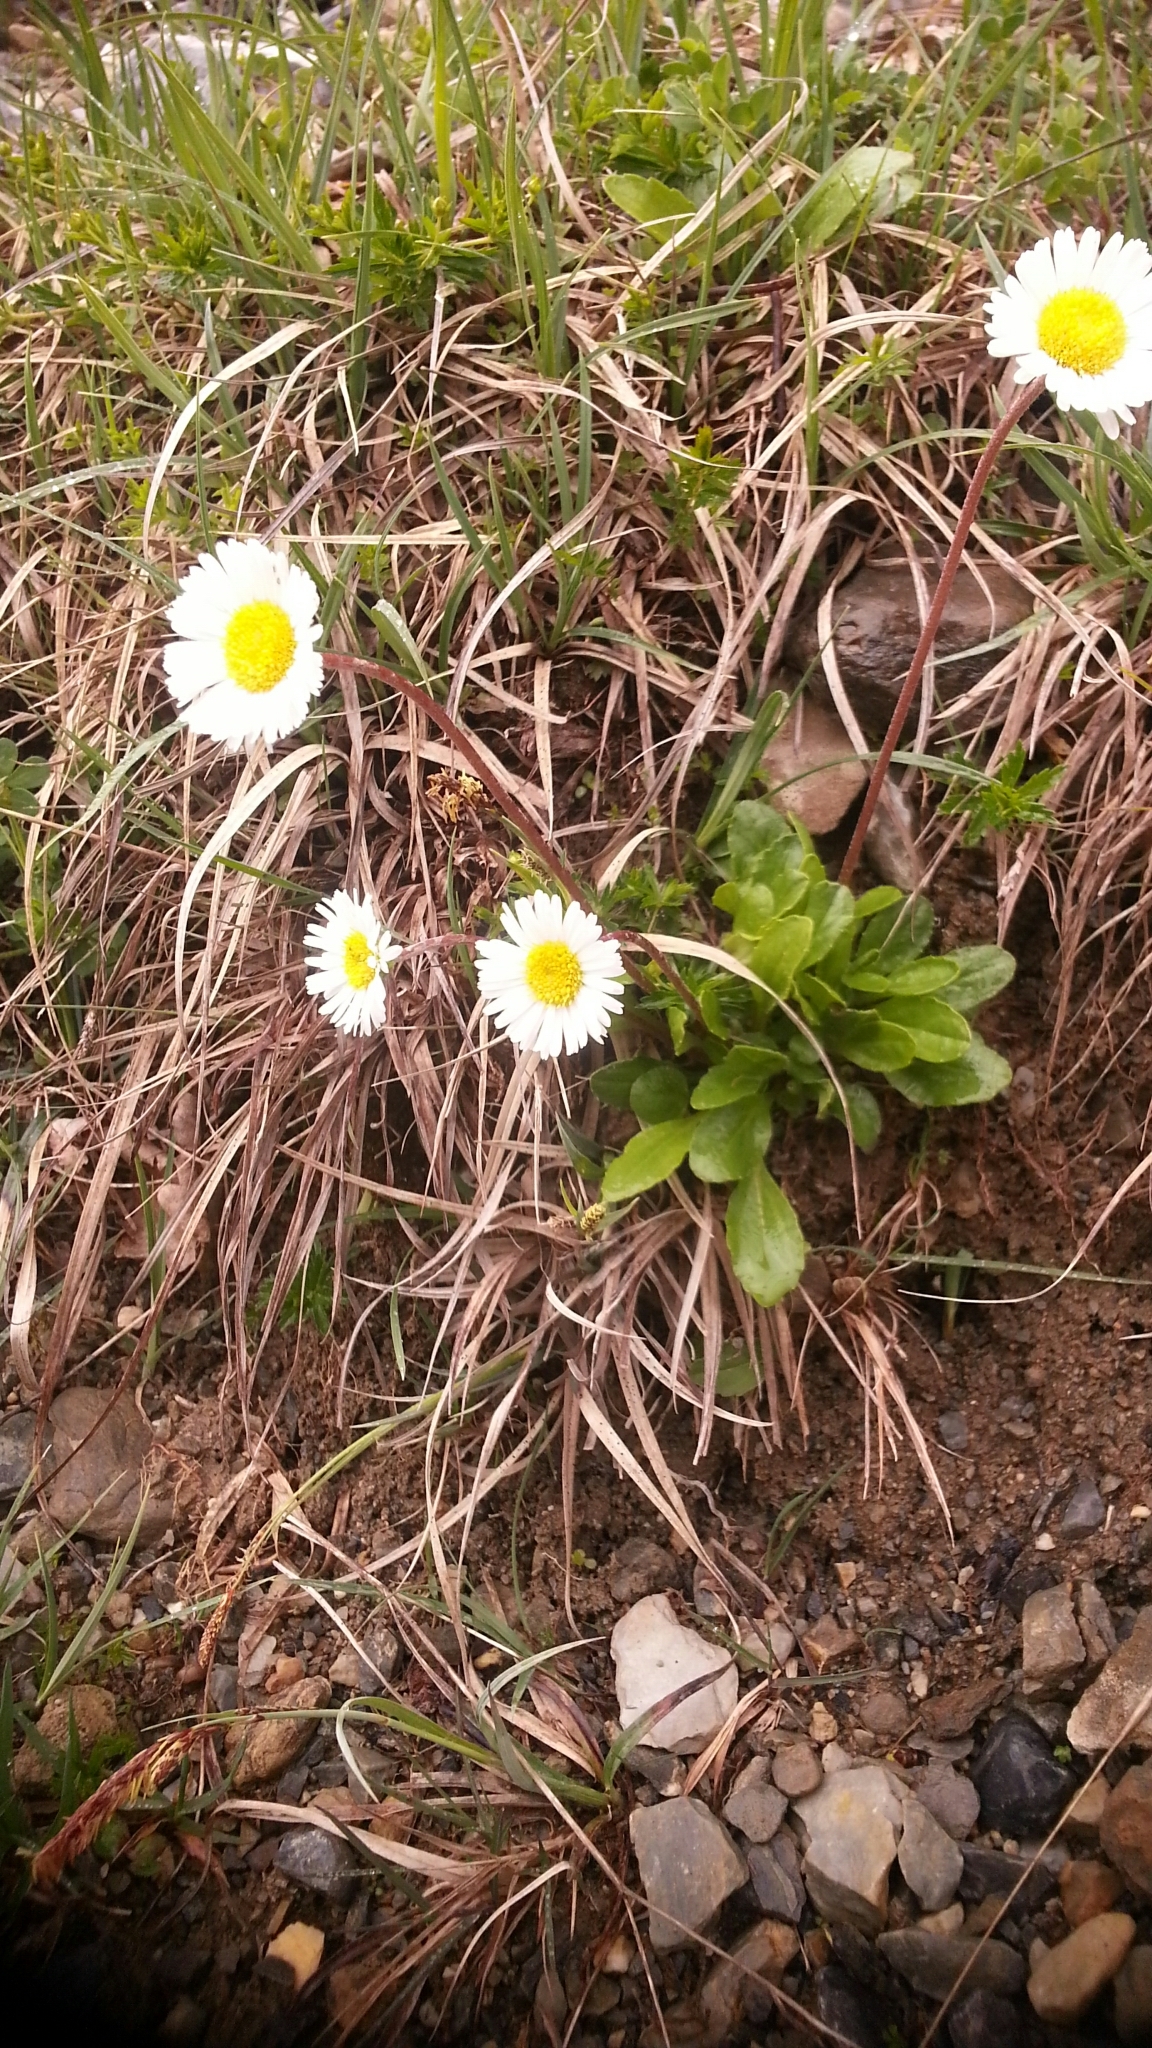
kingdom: Plantae
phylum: Tracheophyta
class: Magnoliopsida
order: Asterales
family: Asteraceae
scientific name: Asteraceae
